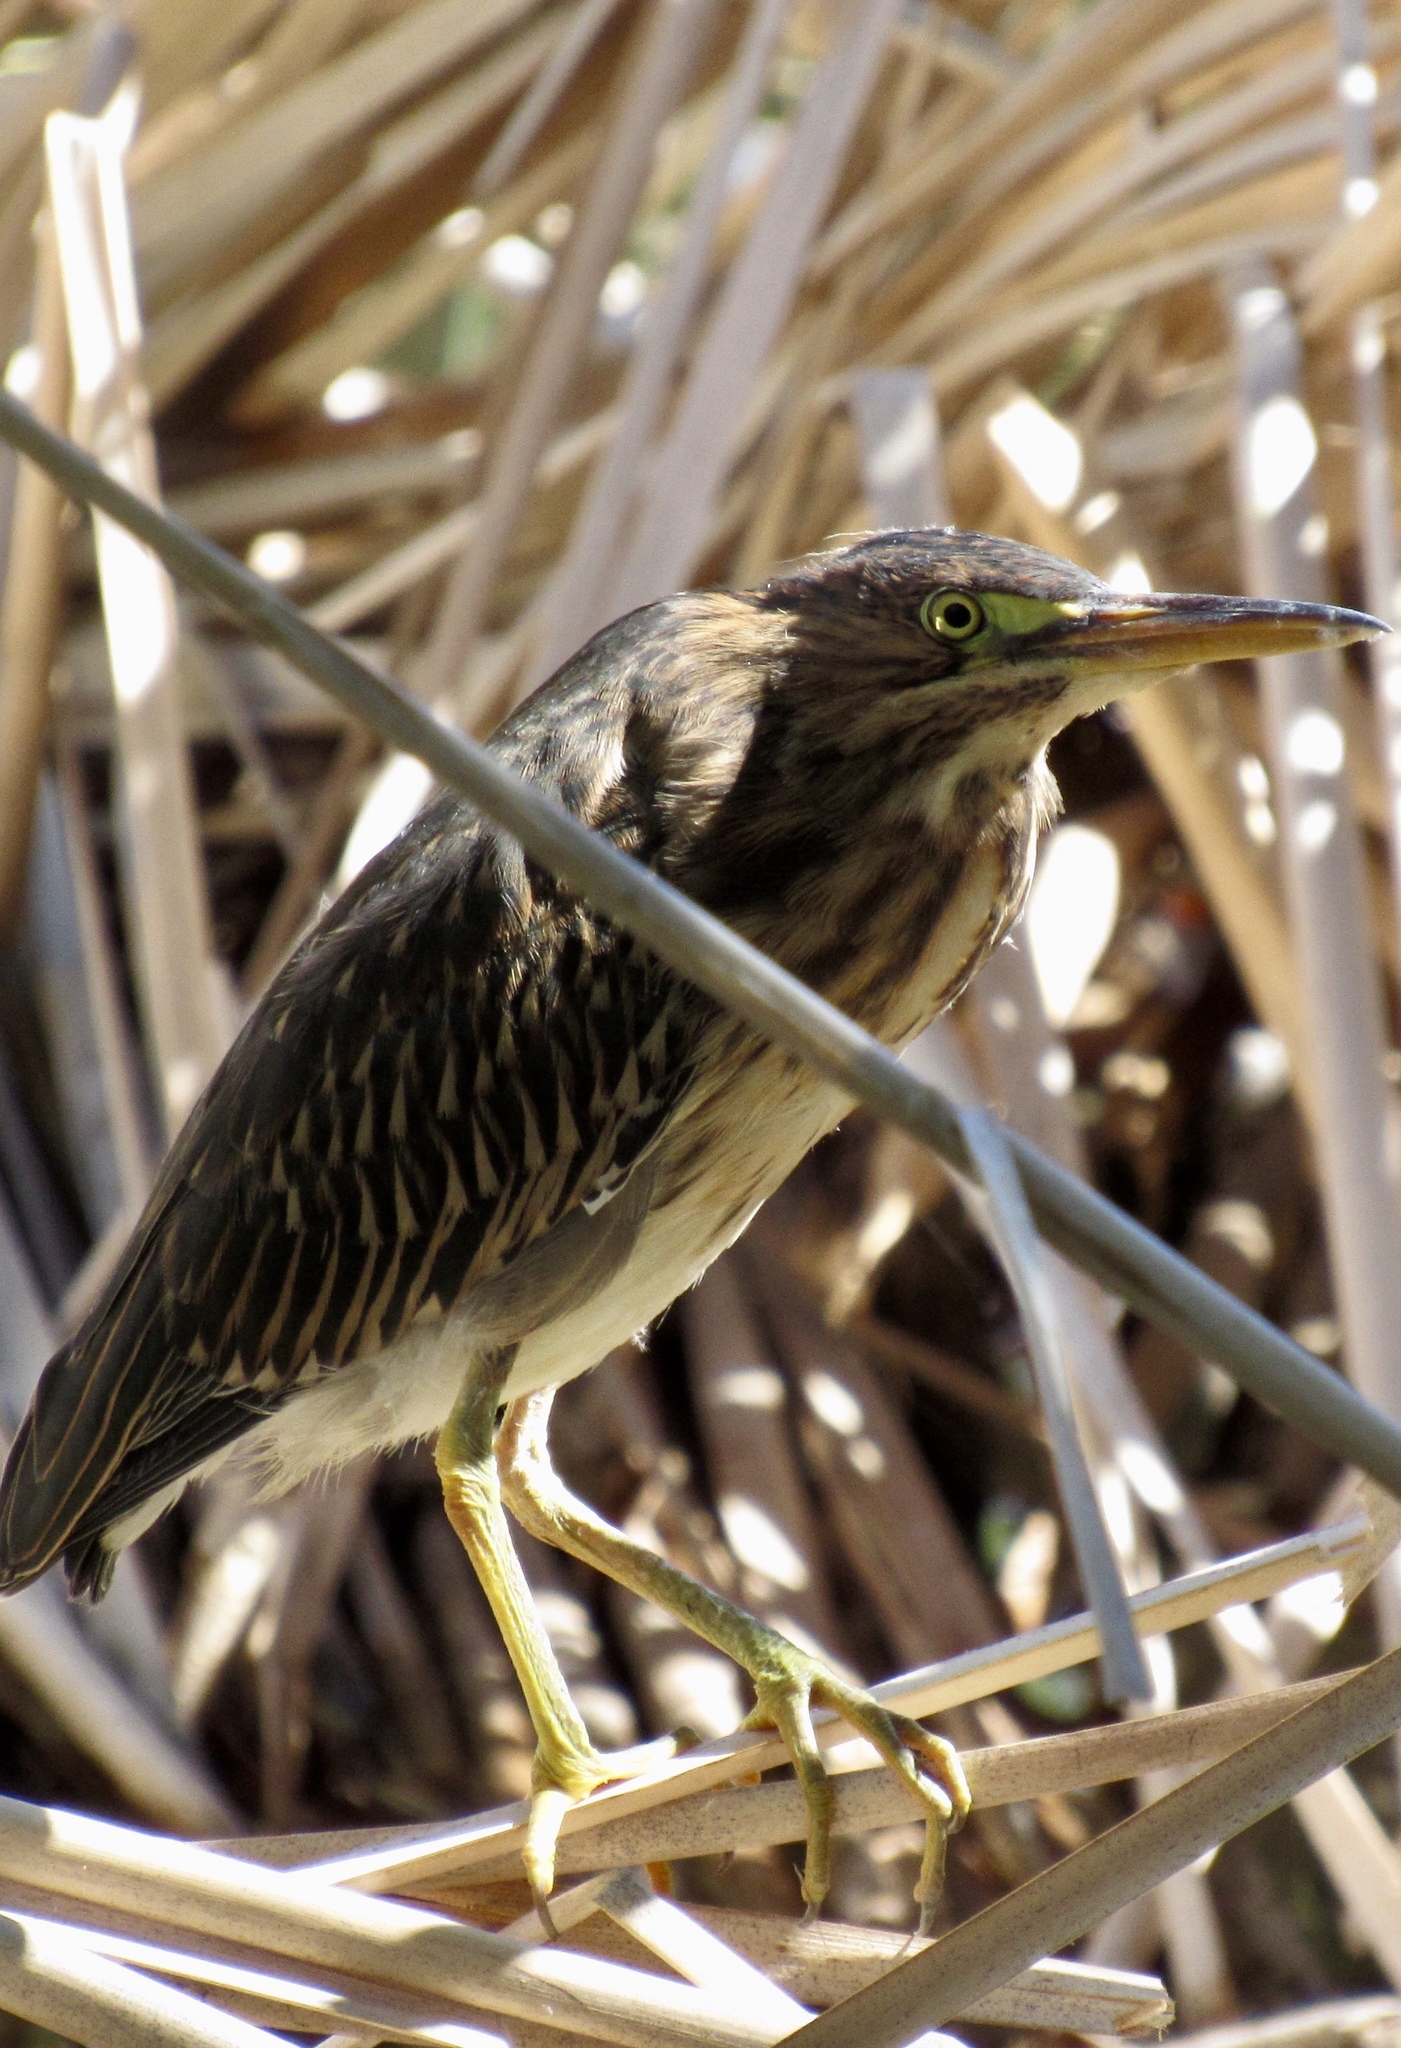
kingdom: Animalia
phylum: Chordata
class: Aves
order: Pelecaniformes
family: Ardeidae
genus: Butorides
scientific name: Butorides virescens
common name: Green heron
